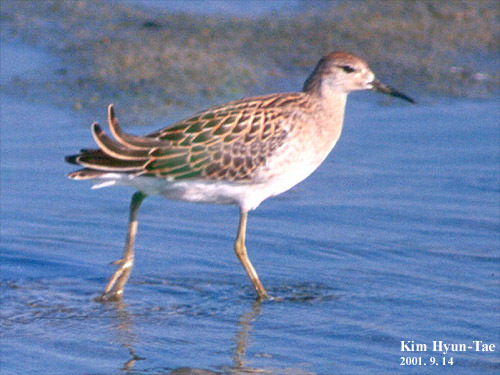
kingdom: Animalia
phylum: Chordata
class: Aves
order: Charadriiformes
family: Scolopacidae
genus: Calidris
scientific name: Calidris pugnax
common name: Ruff
